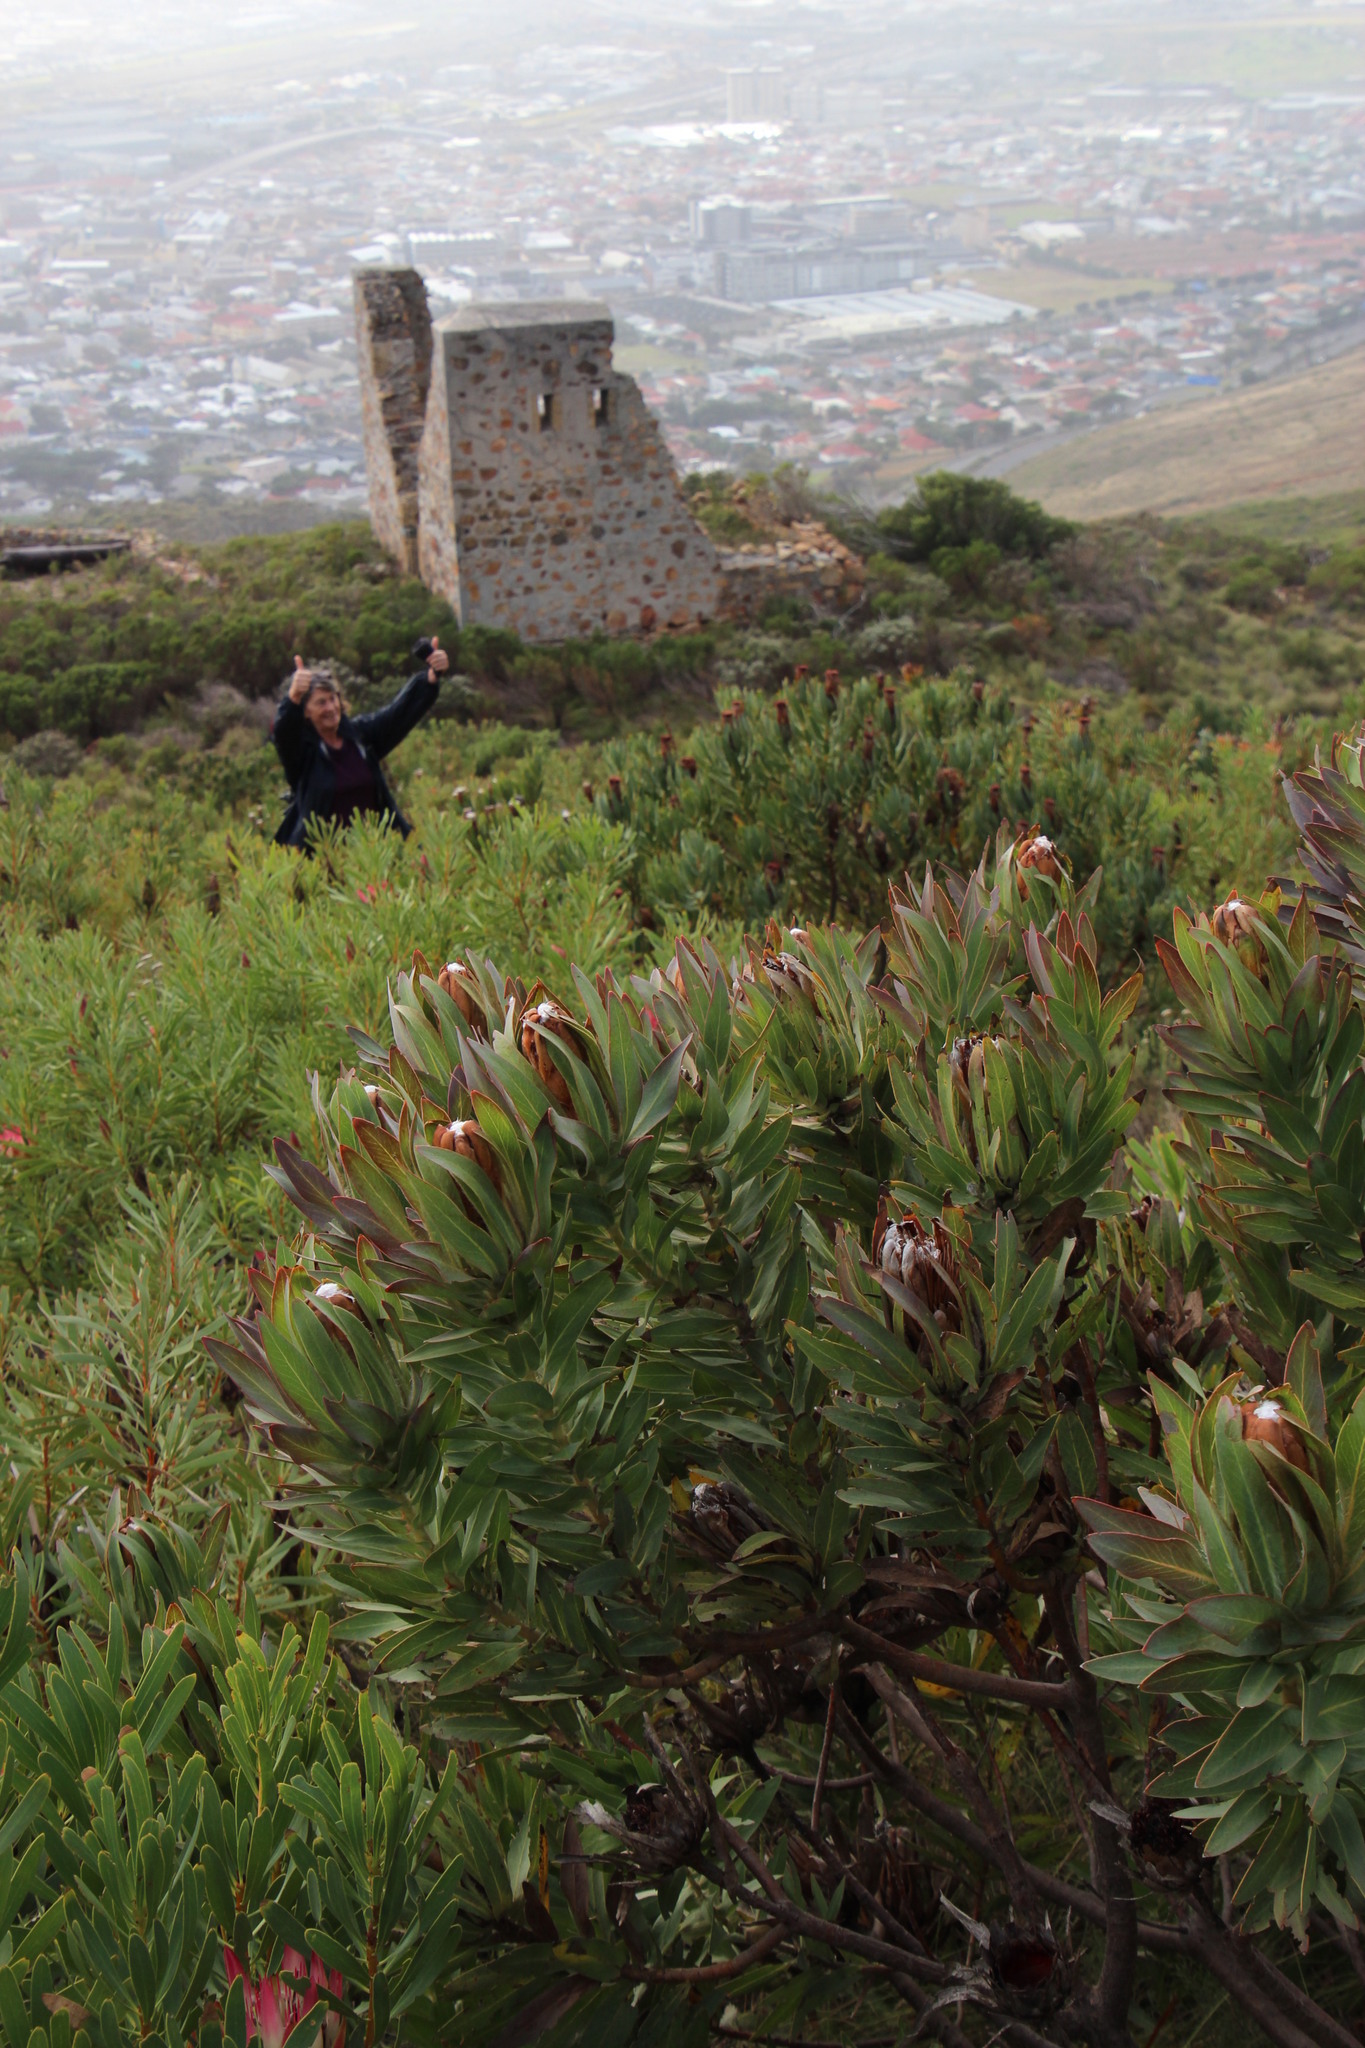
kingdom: Plantae
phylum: Tracheophyta
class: Magnoliopsida
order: Proteales
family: Proteaceae
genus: Protea
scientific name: Protea coronata
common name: Green sugarbush
